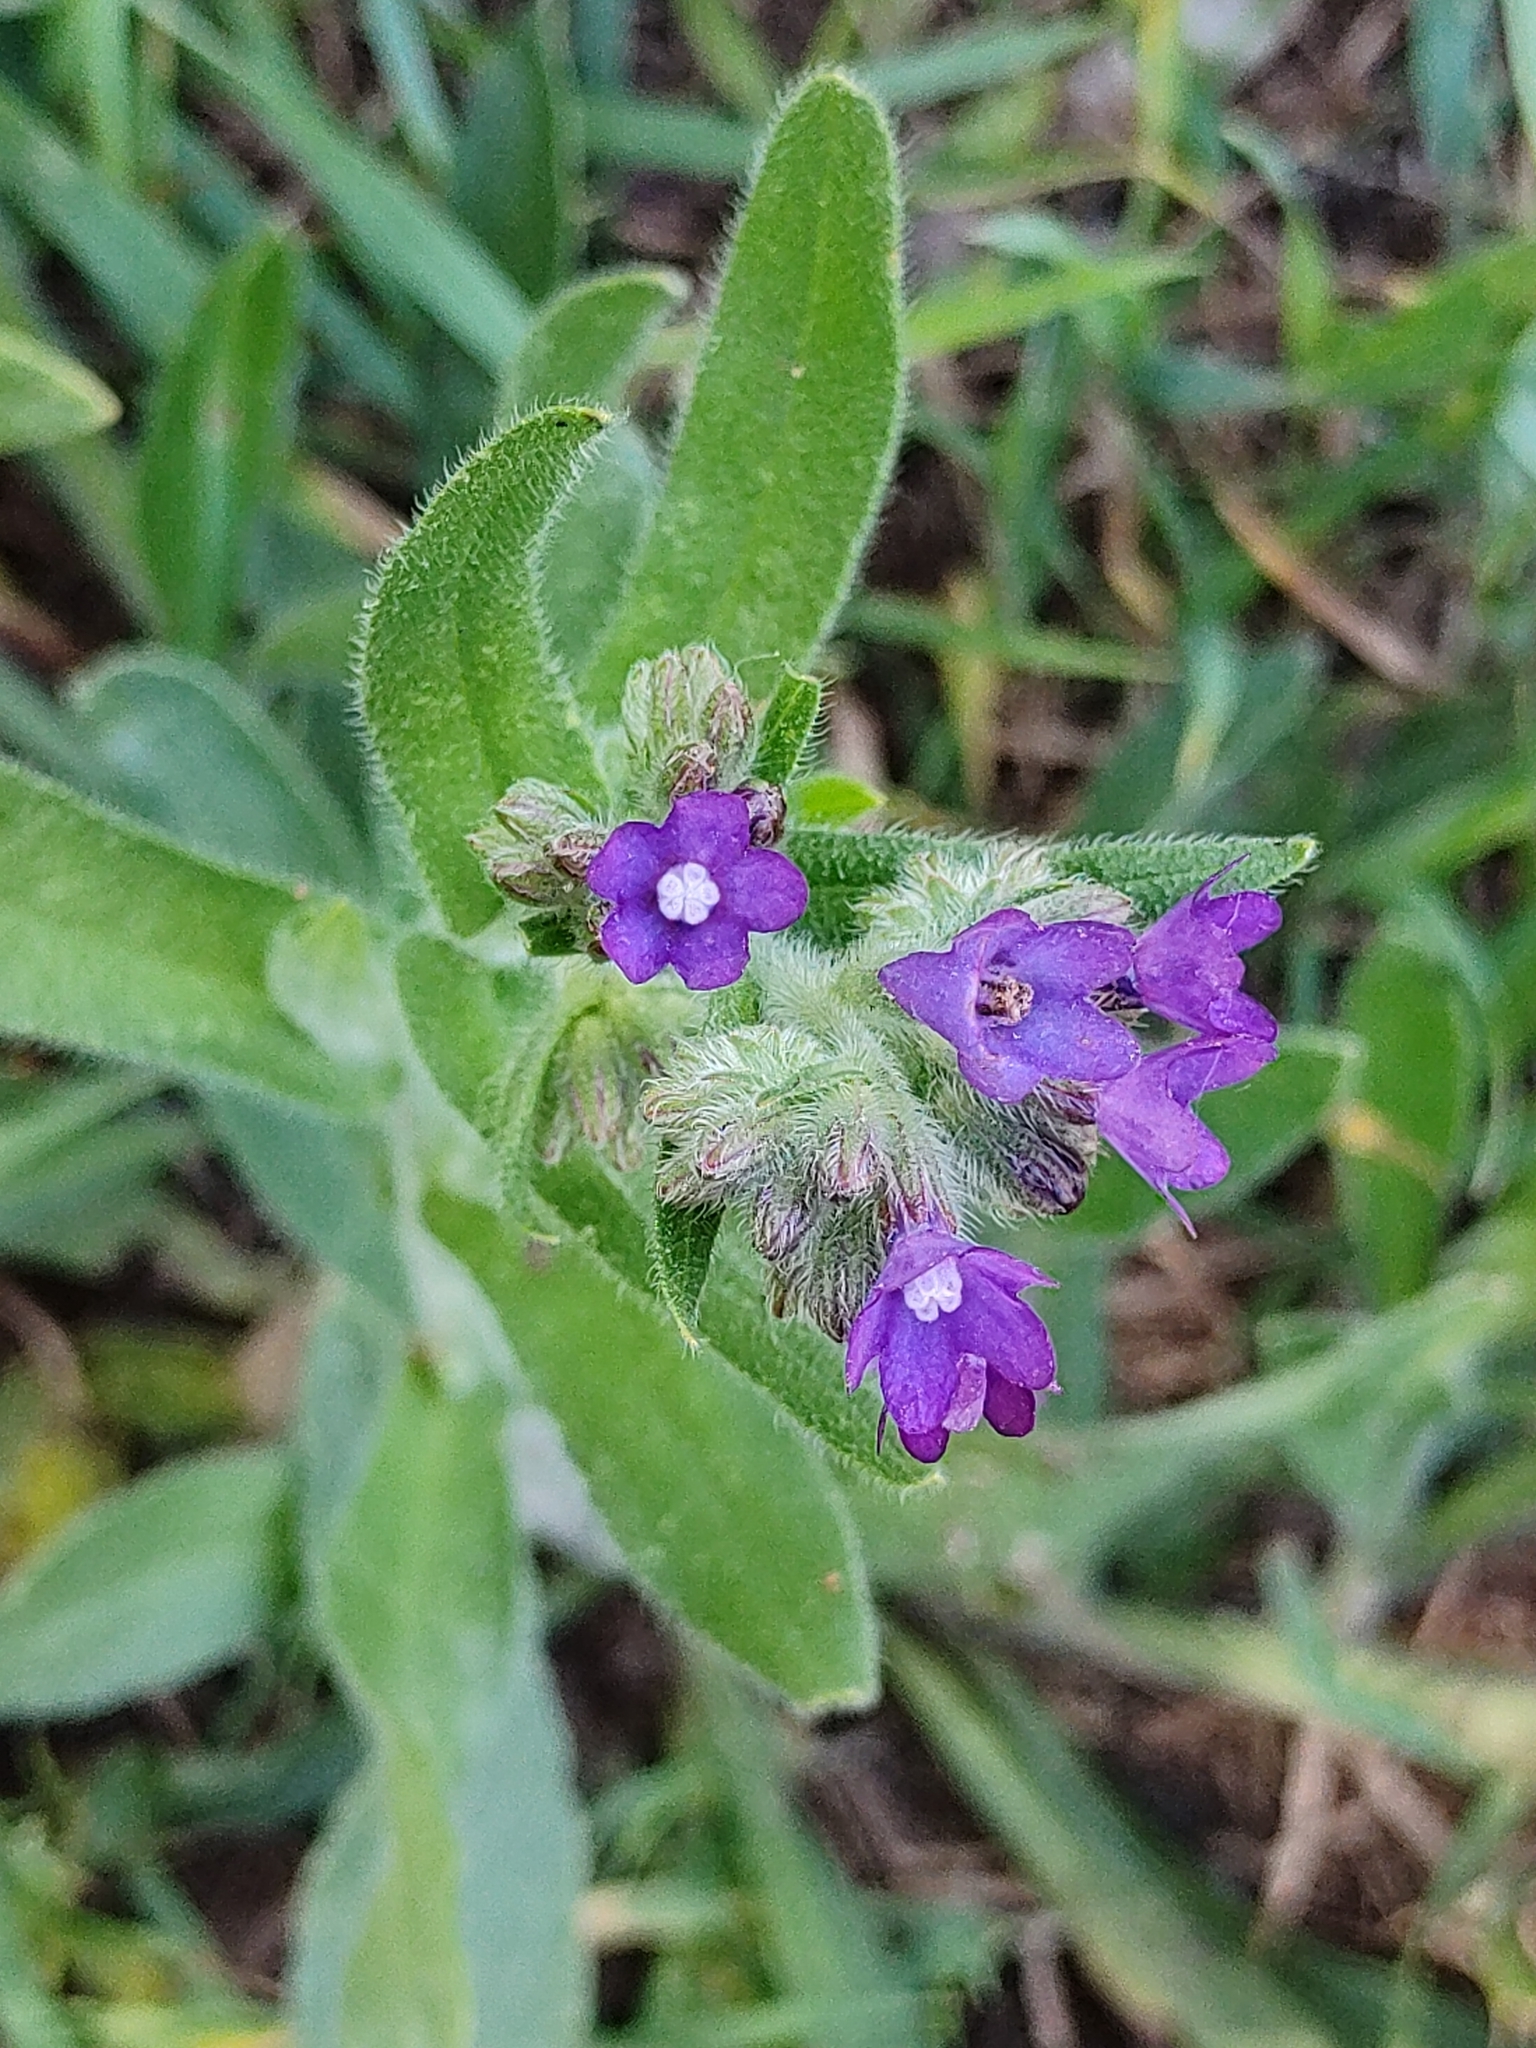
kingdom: Plantae
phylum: Tracheophyta
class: Magnoliopsida
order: Boraginales
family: Boraginaceae
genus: Anchusa
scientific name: Anchusa officinalis
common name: Alkanet
